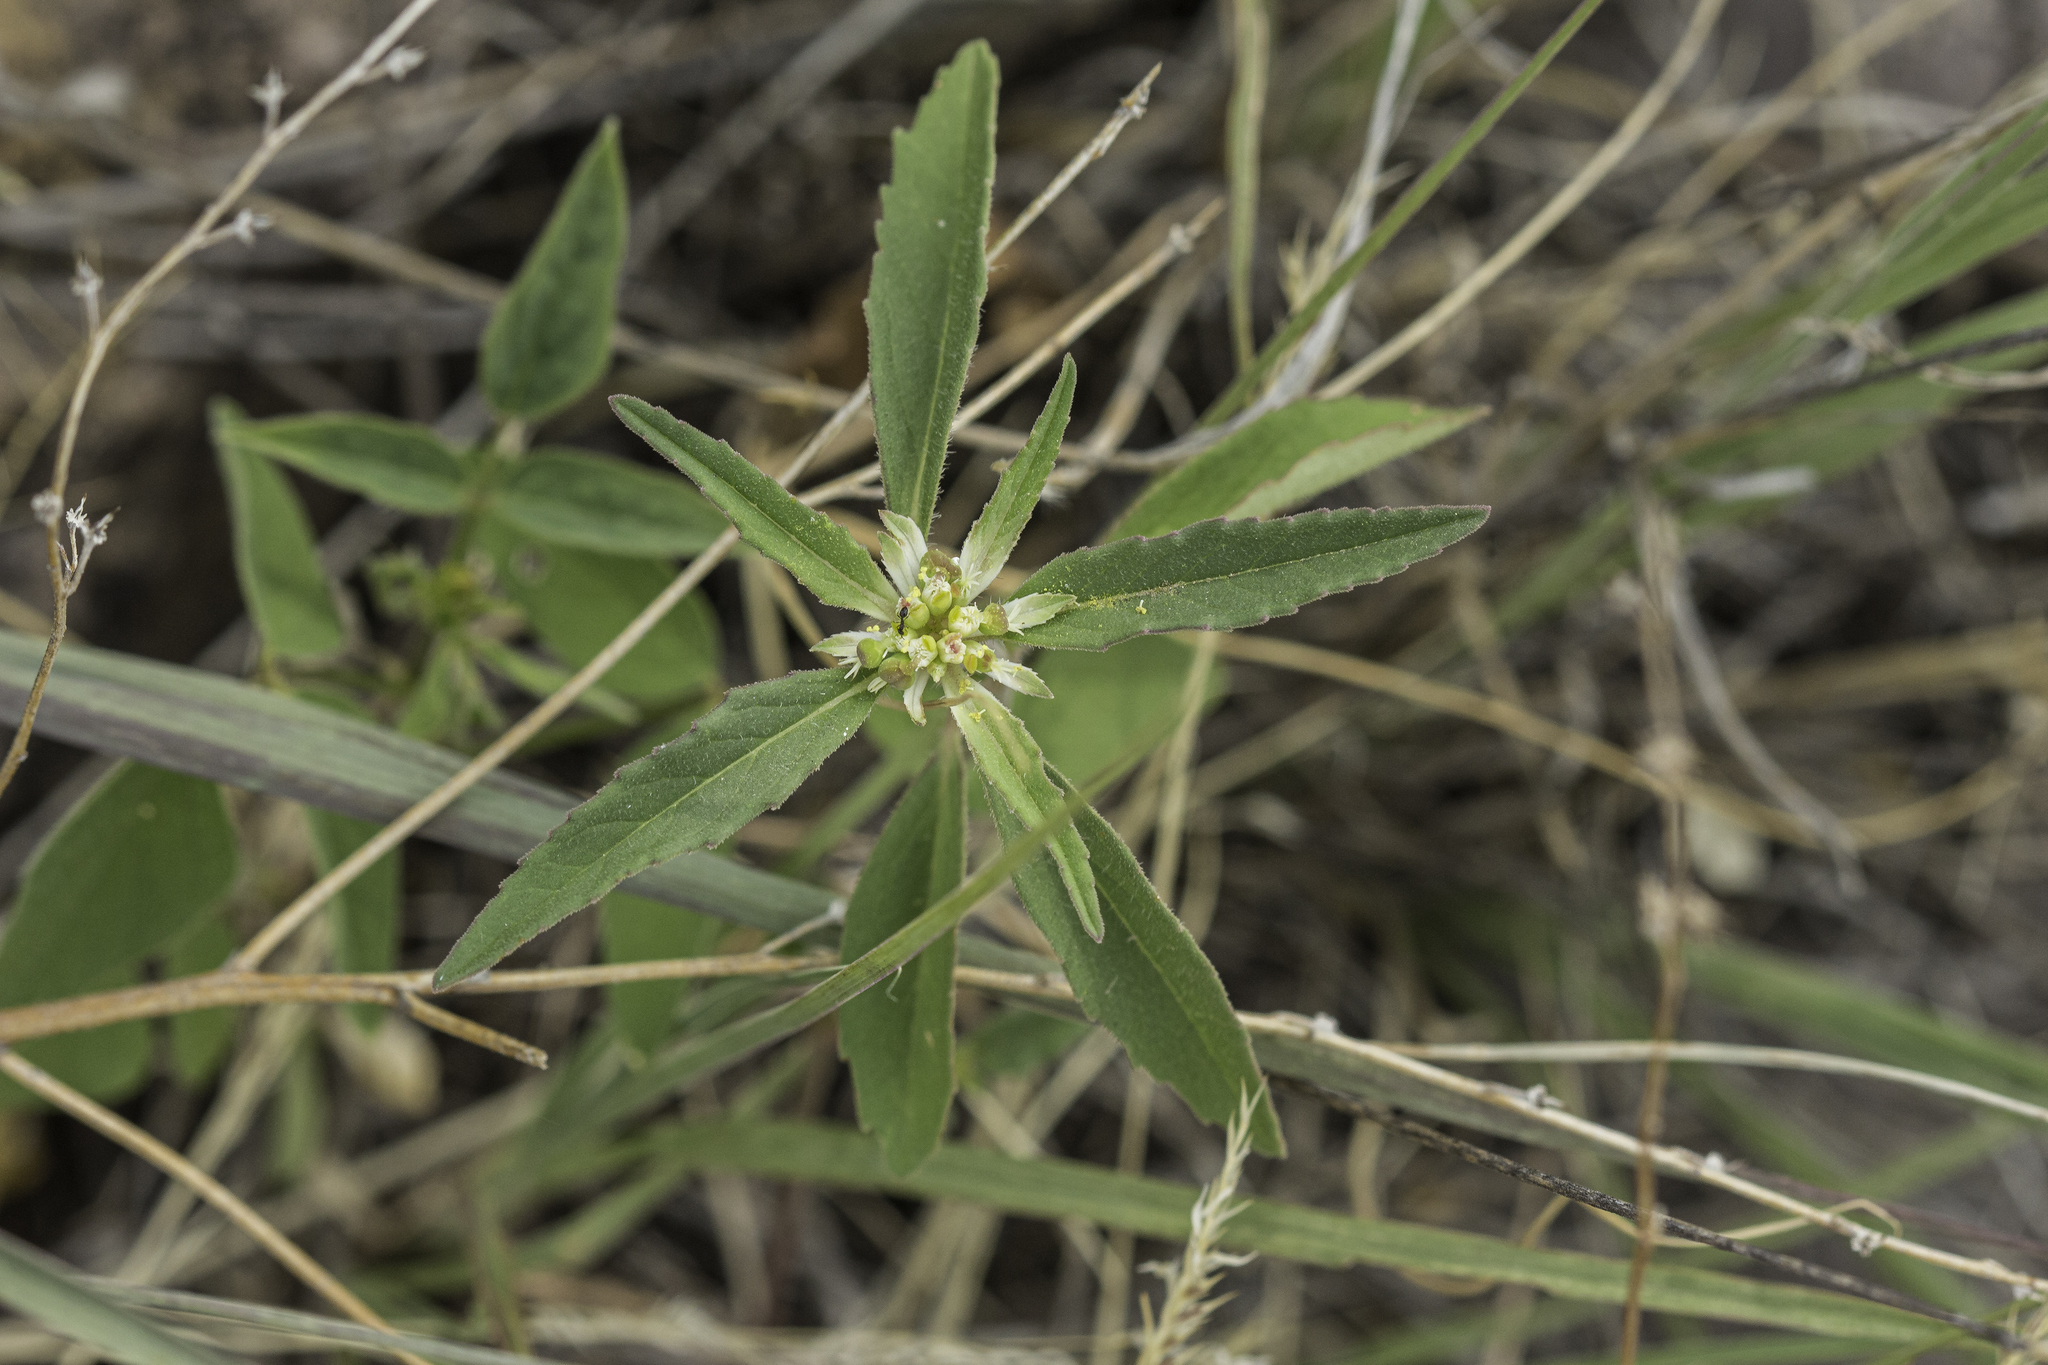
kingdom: Plantae
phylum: Tracheophyta
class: Magnoliopsida
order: Malpighiales
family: Euphorbiaceae
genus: Euphorbia
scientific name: Euphorbia davidii
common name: David's spurge
